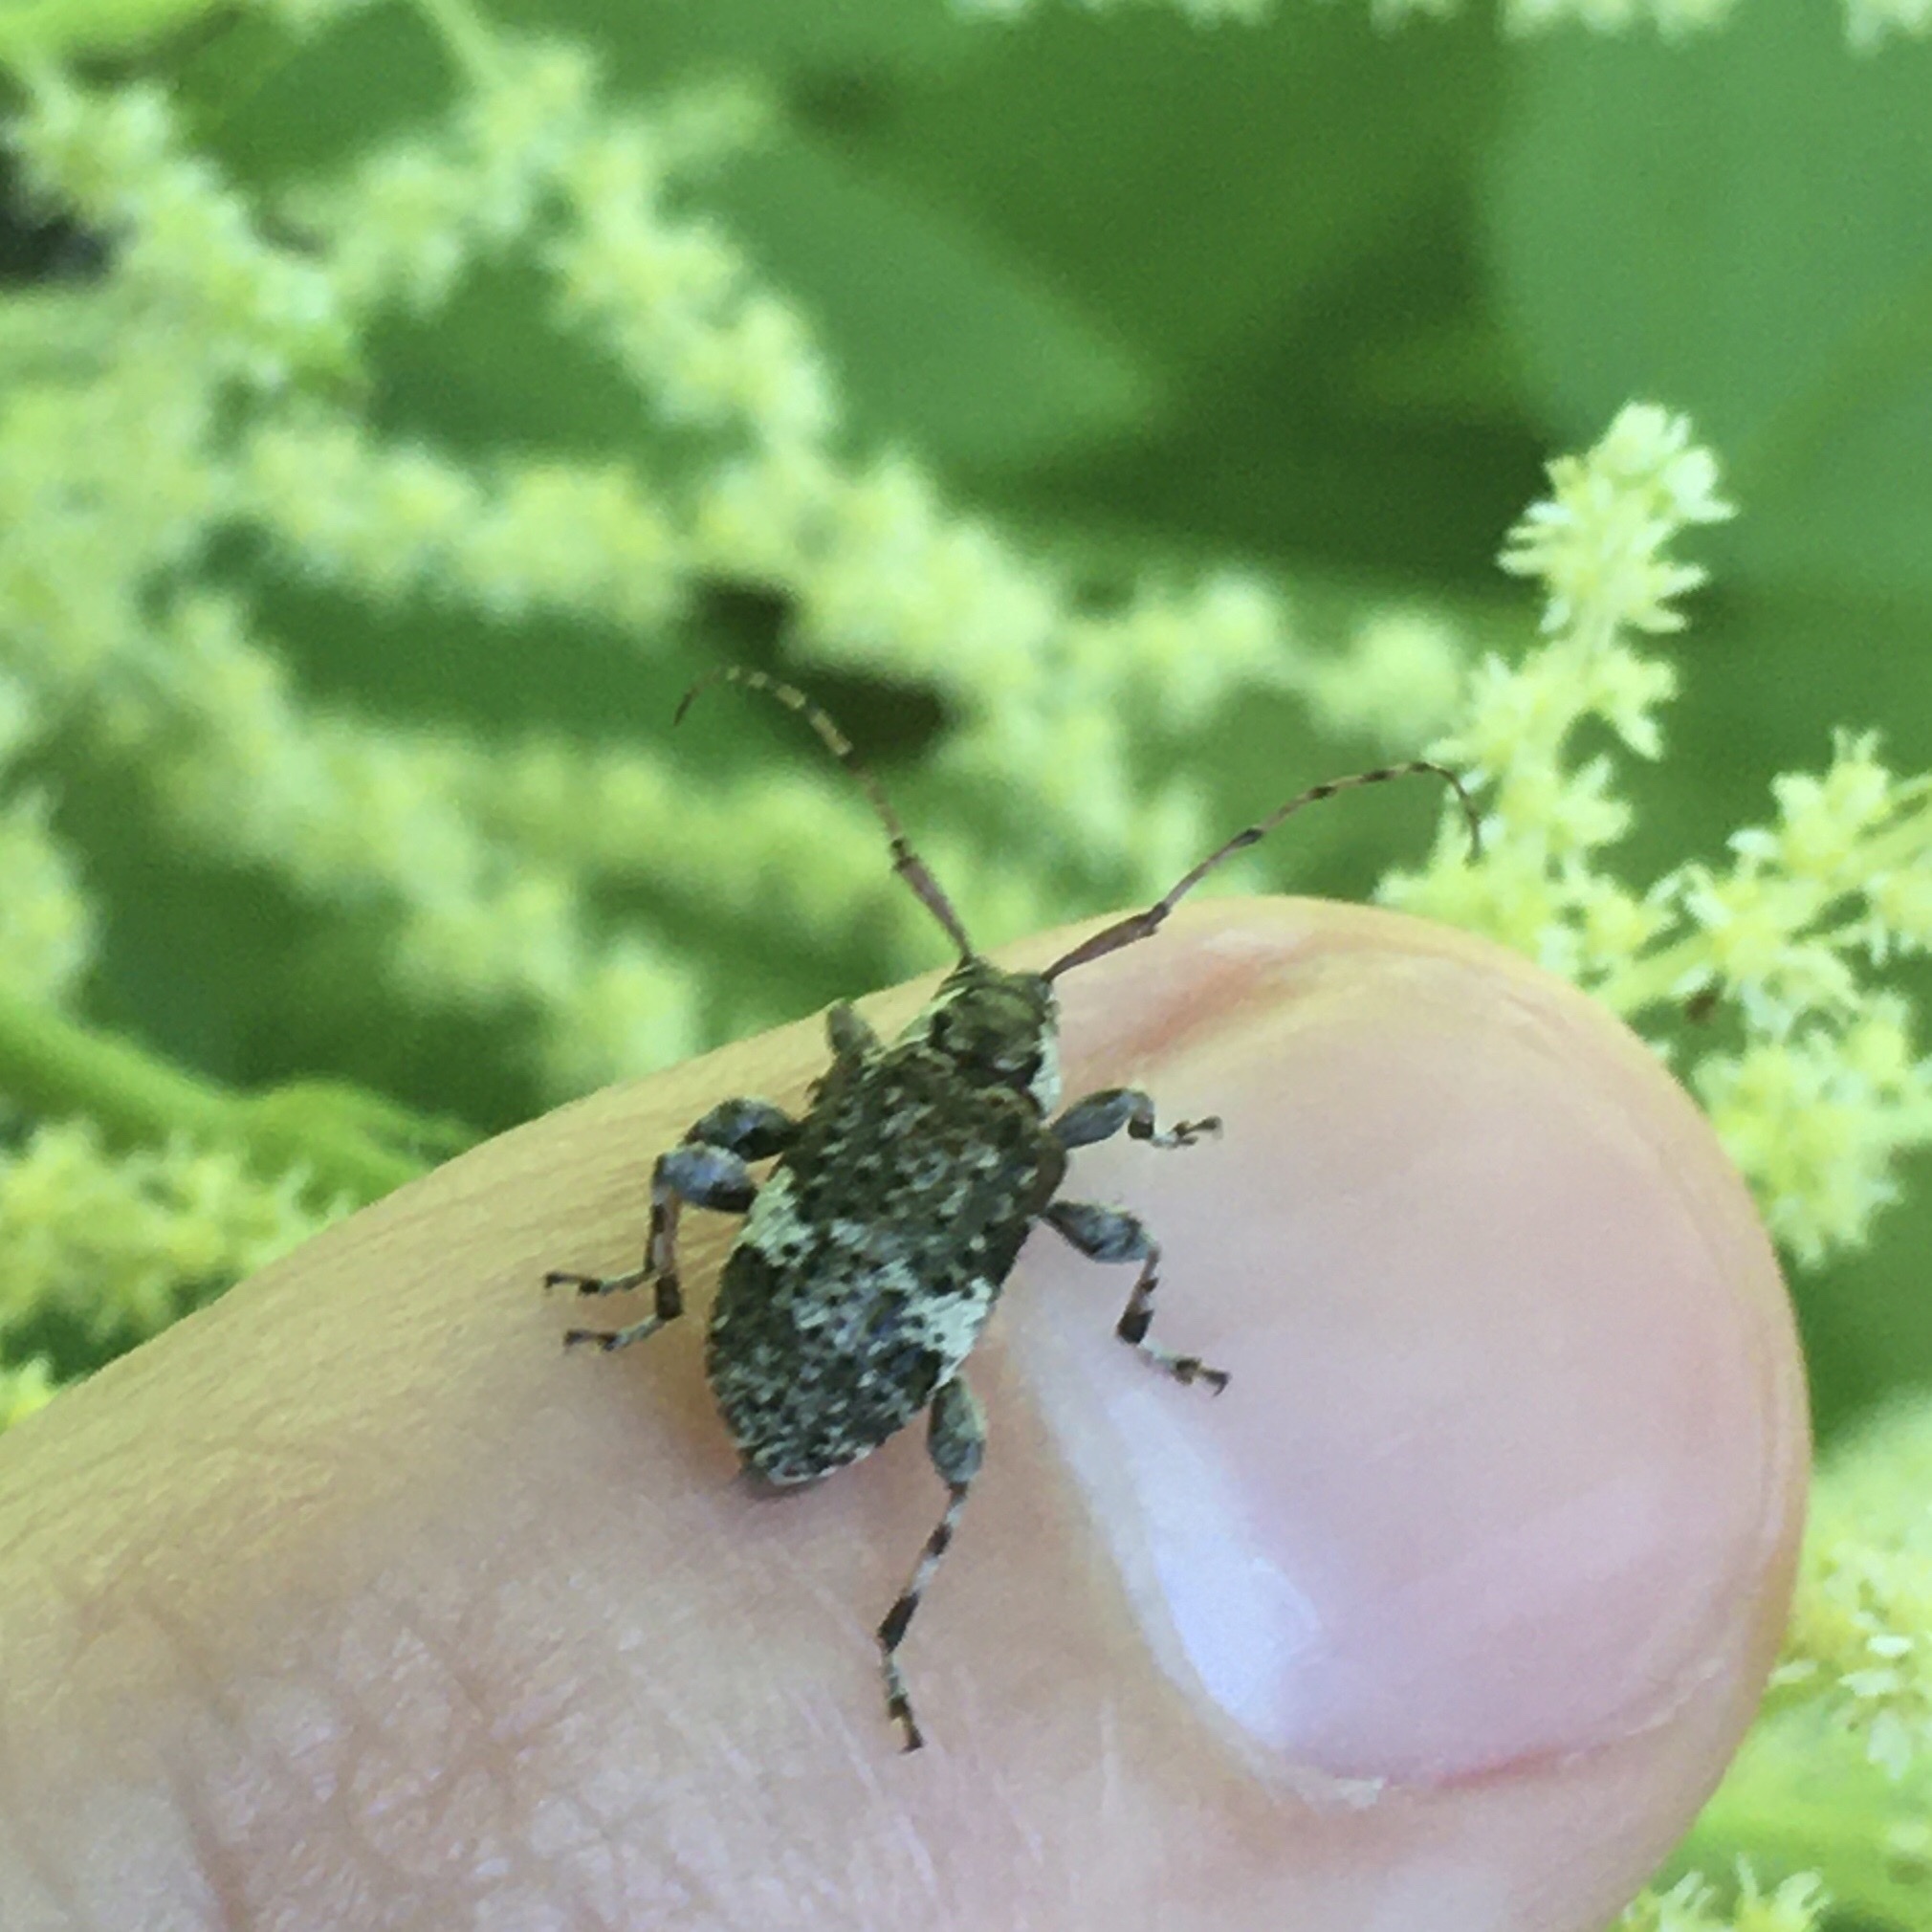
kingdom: Animalia
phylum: Arthropoda
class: Insecta
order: Coleoptera
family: Cerambycidae
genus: Astylopsis
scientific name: Astylopsis macula
